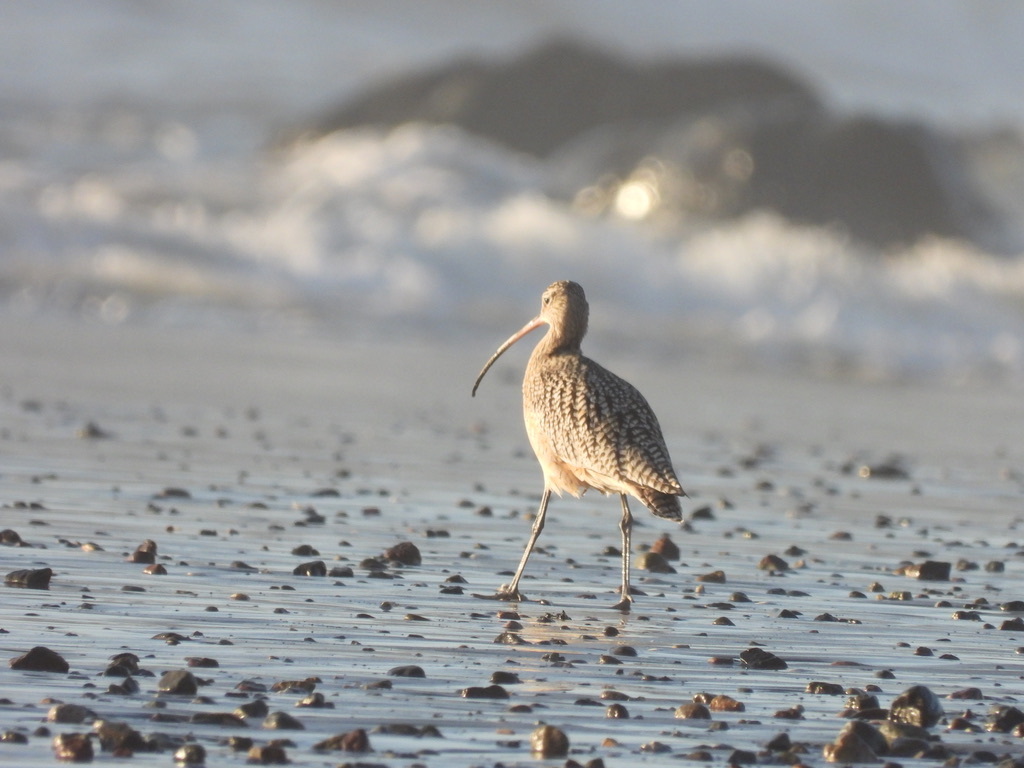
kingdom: Animalia
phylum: Chordata
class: Aves
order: Charadriiformes
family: Scolopacidae
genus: Numenius
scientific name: Numenius americanus
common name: Long-billed curlew
